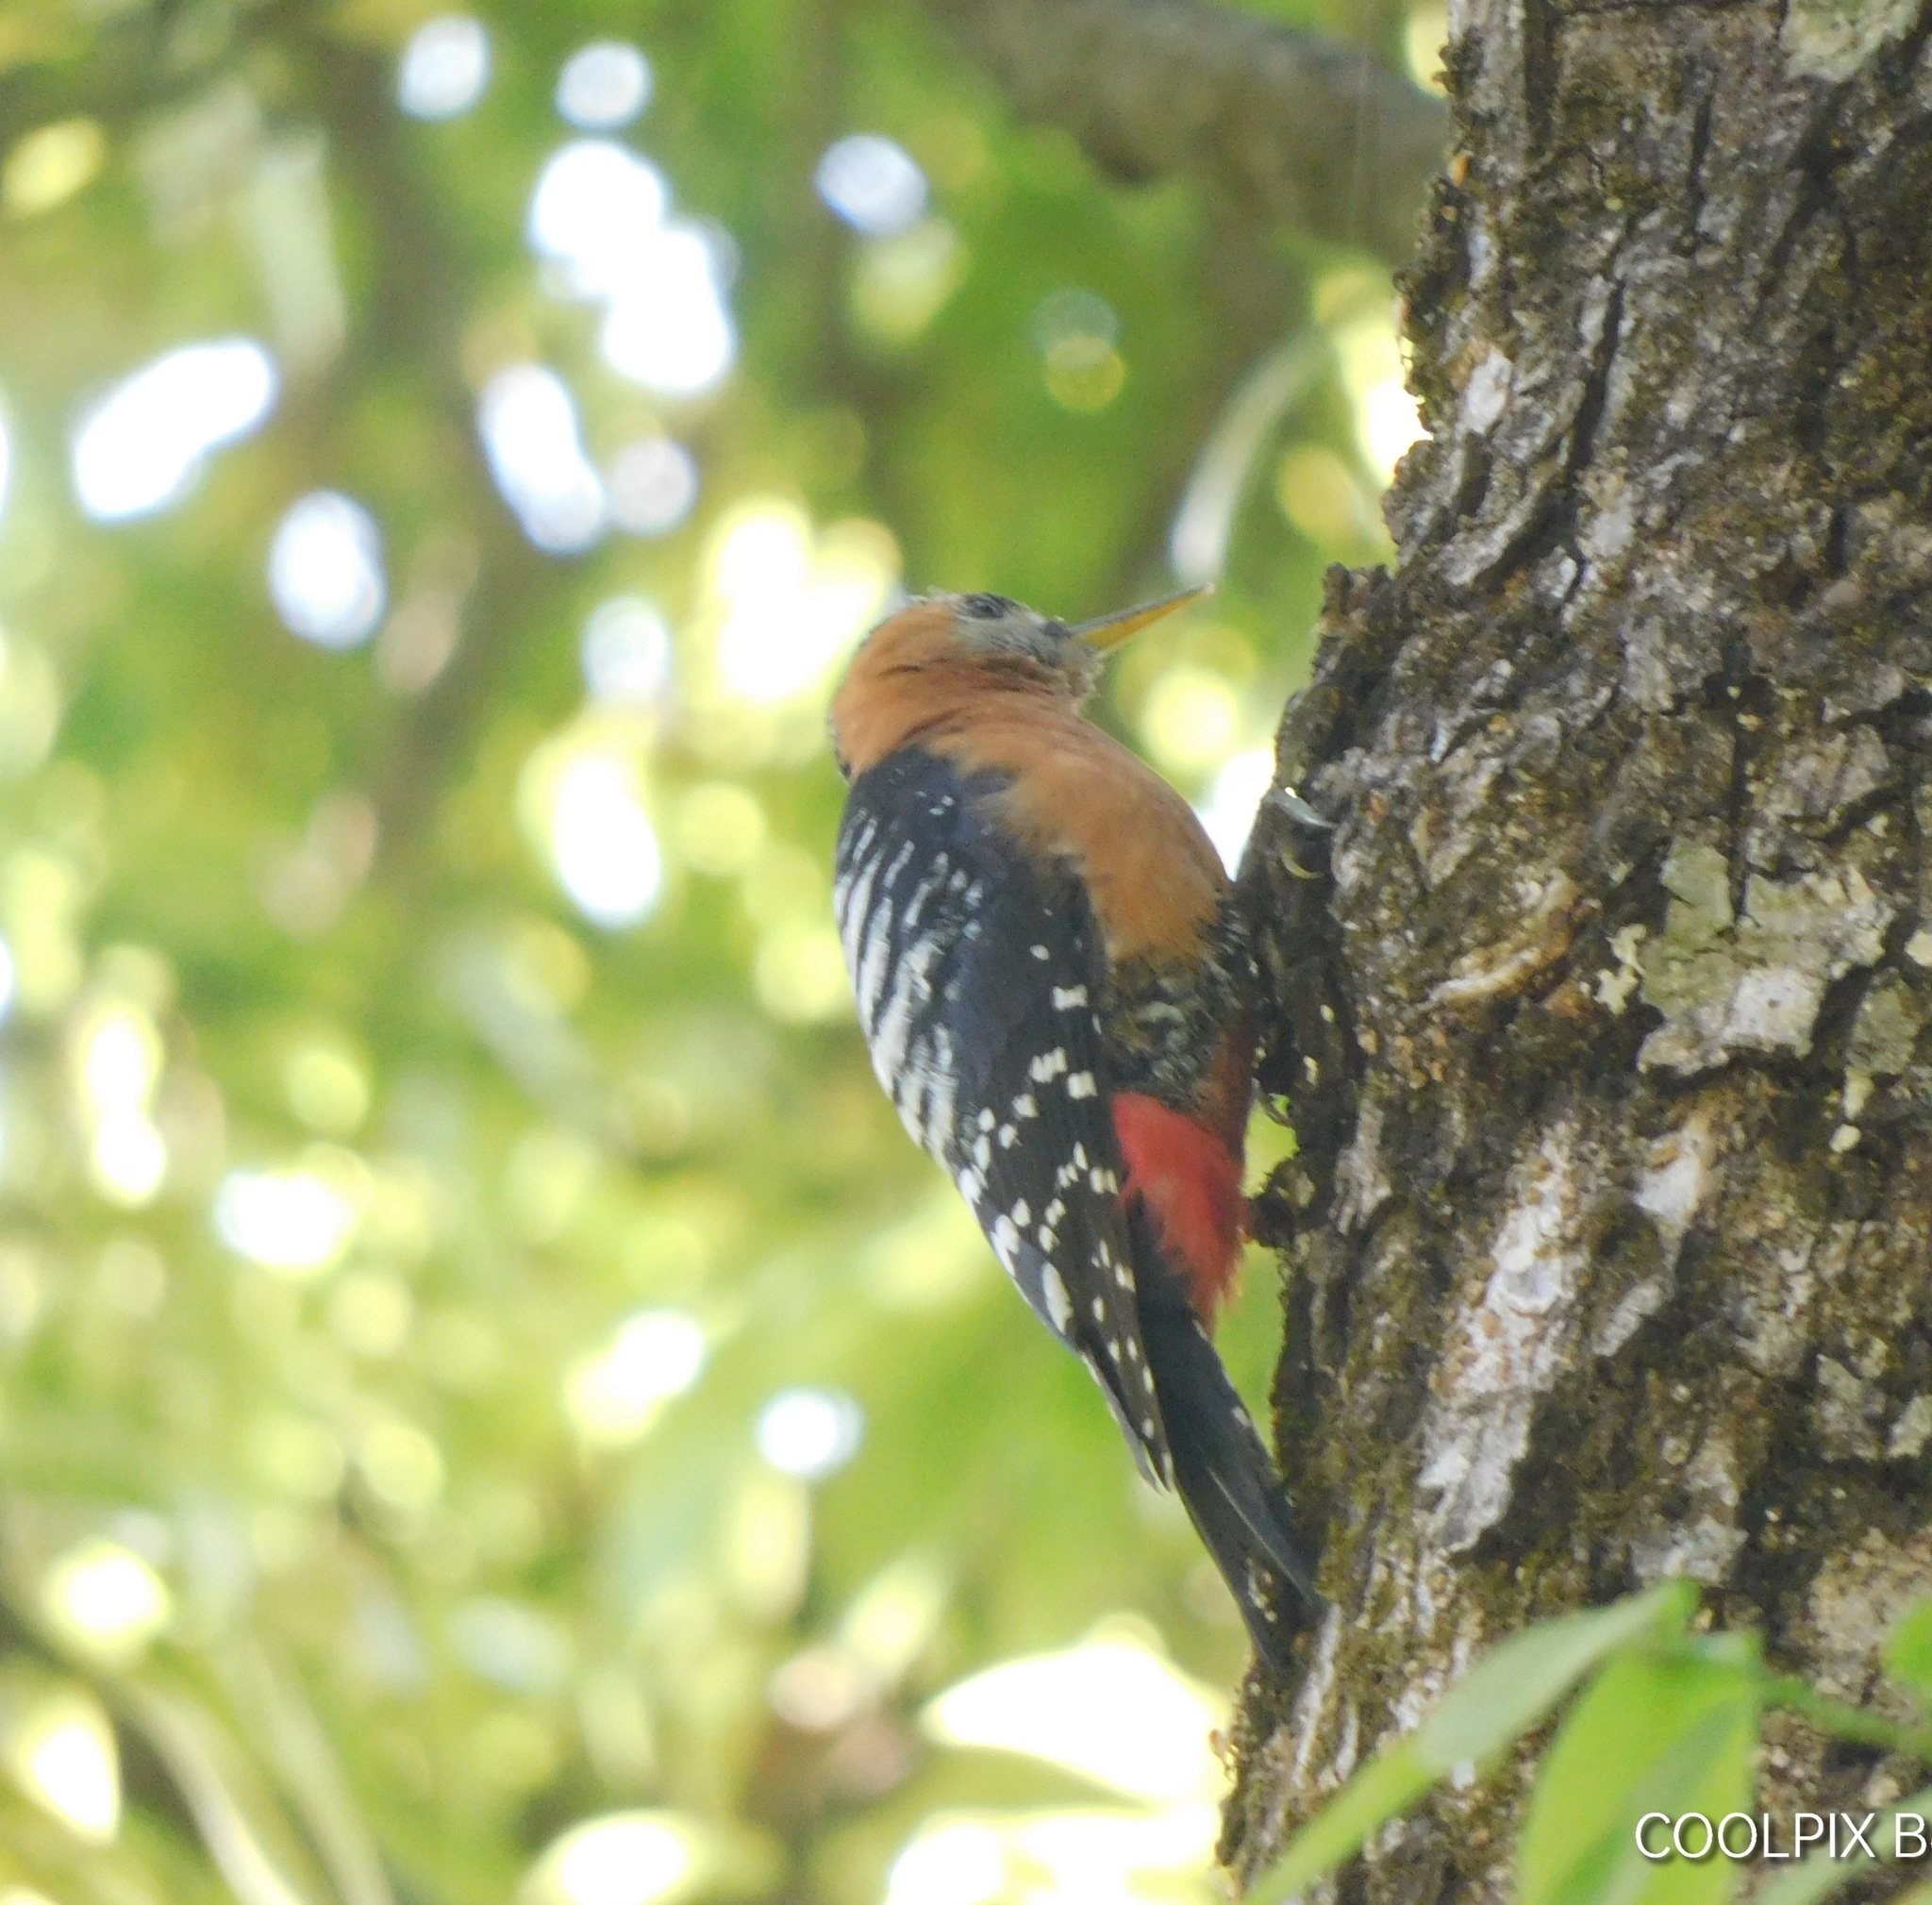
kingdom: Animalia
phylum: Chordata
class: Aves
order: Piciformes
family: Picidae
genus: Dendrocopos
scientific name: Dendrocopos hyperythrus
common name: Rufous-bellied woodpecker
